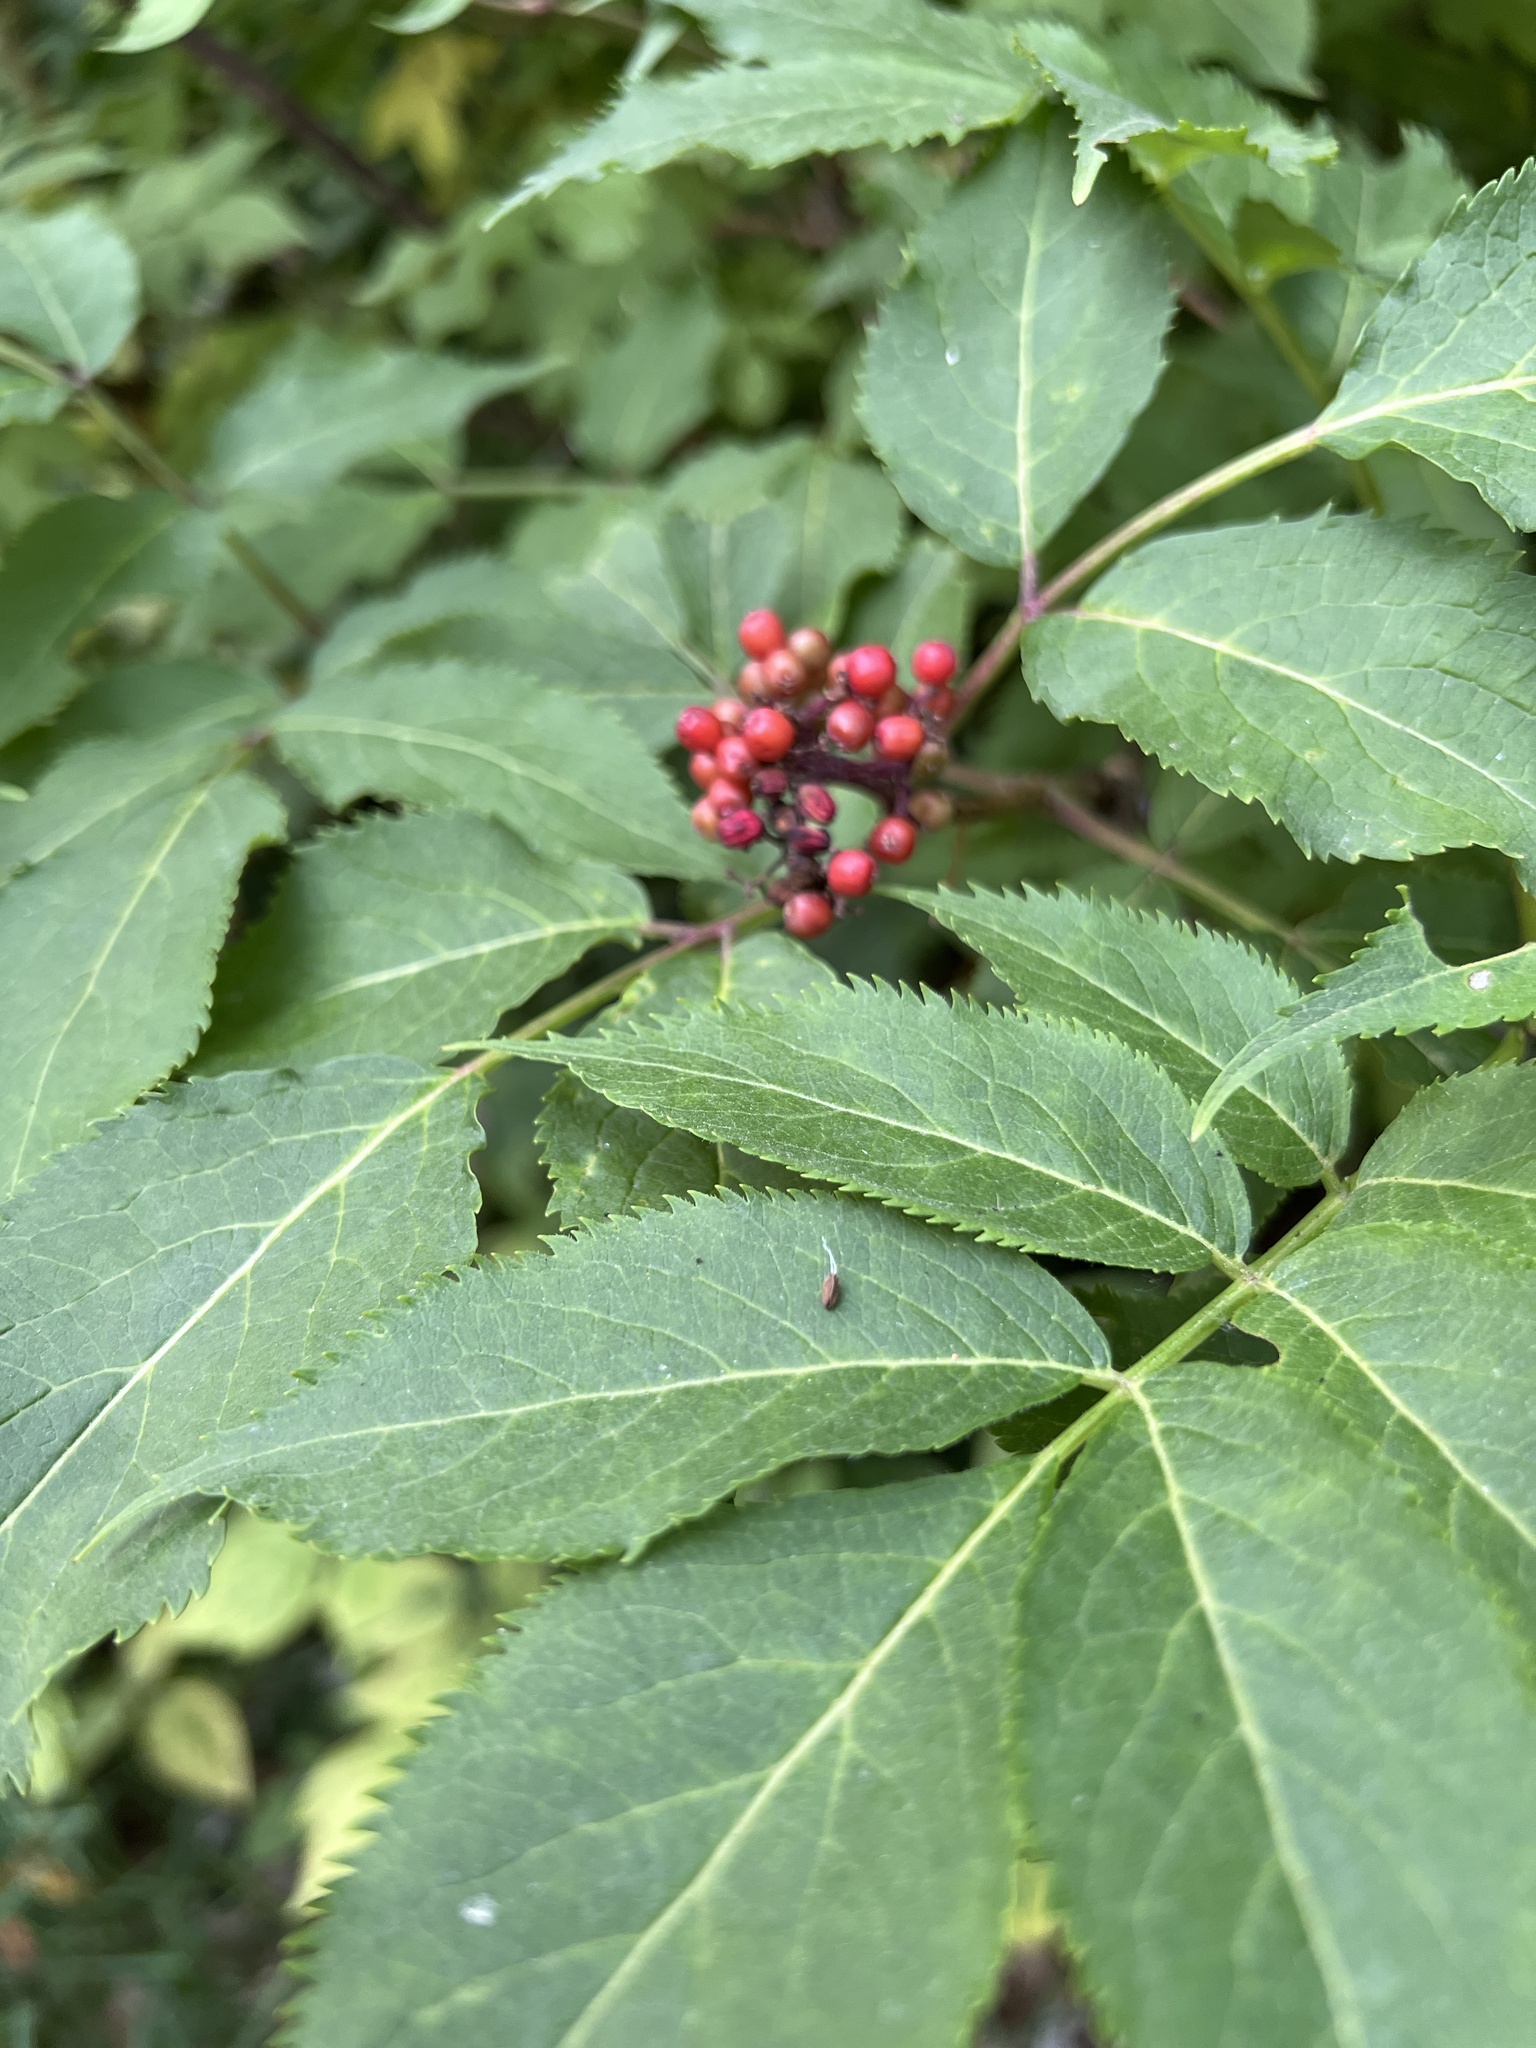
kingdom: Plantae
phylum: Tracheophyta
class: Magnoliopsida
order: Dipsacales
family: Viburnaceae
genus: Sambucus
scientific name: Sambucus racemosa
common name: Red-berried elder
